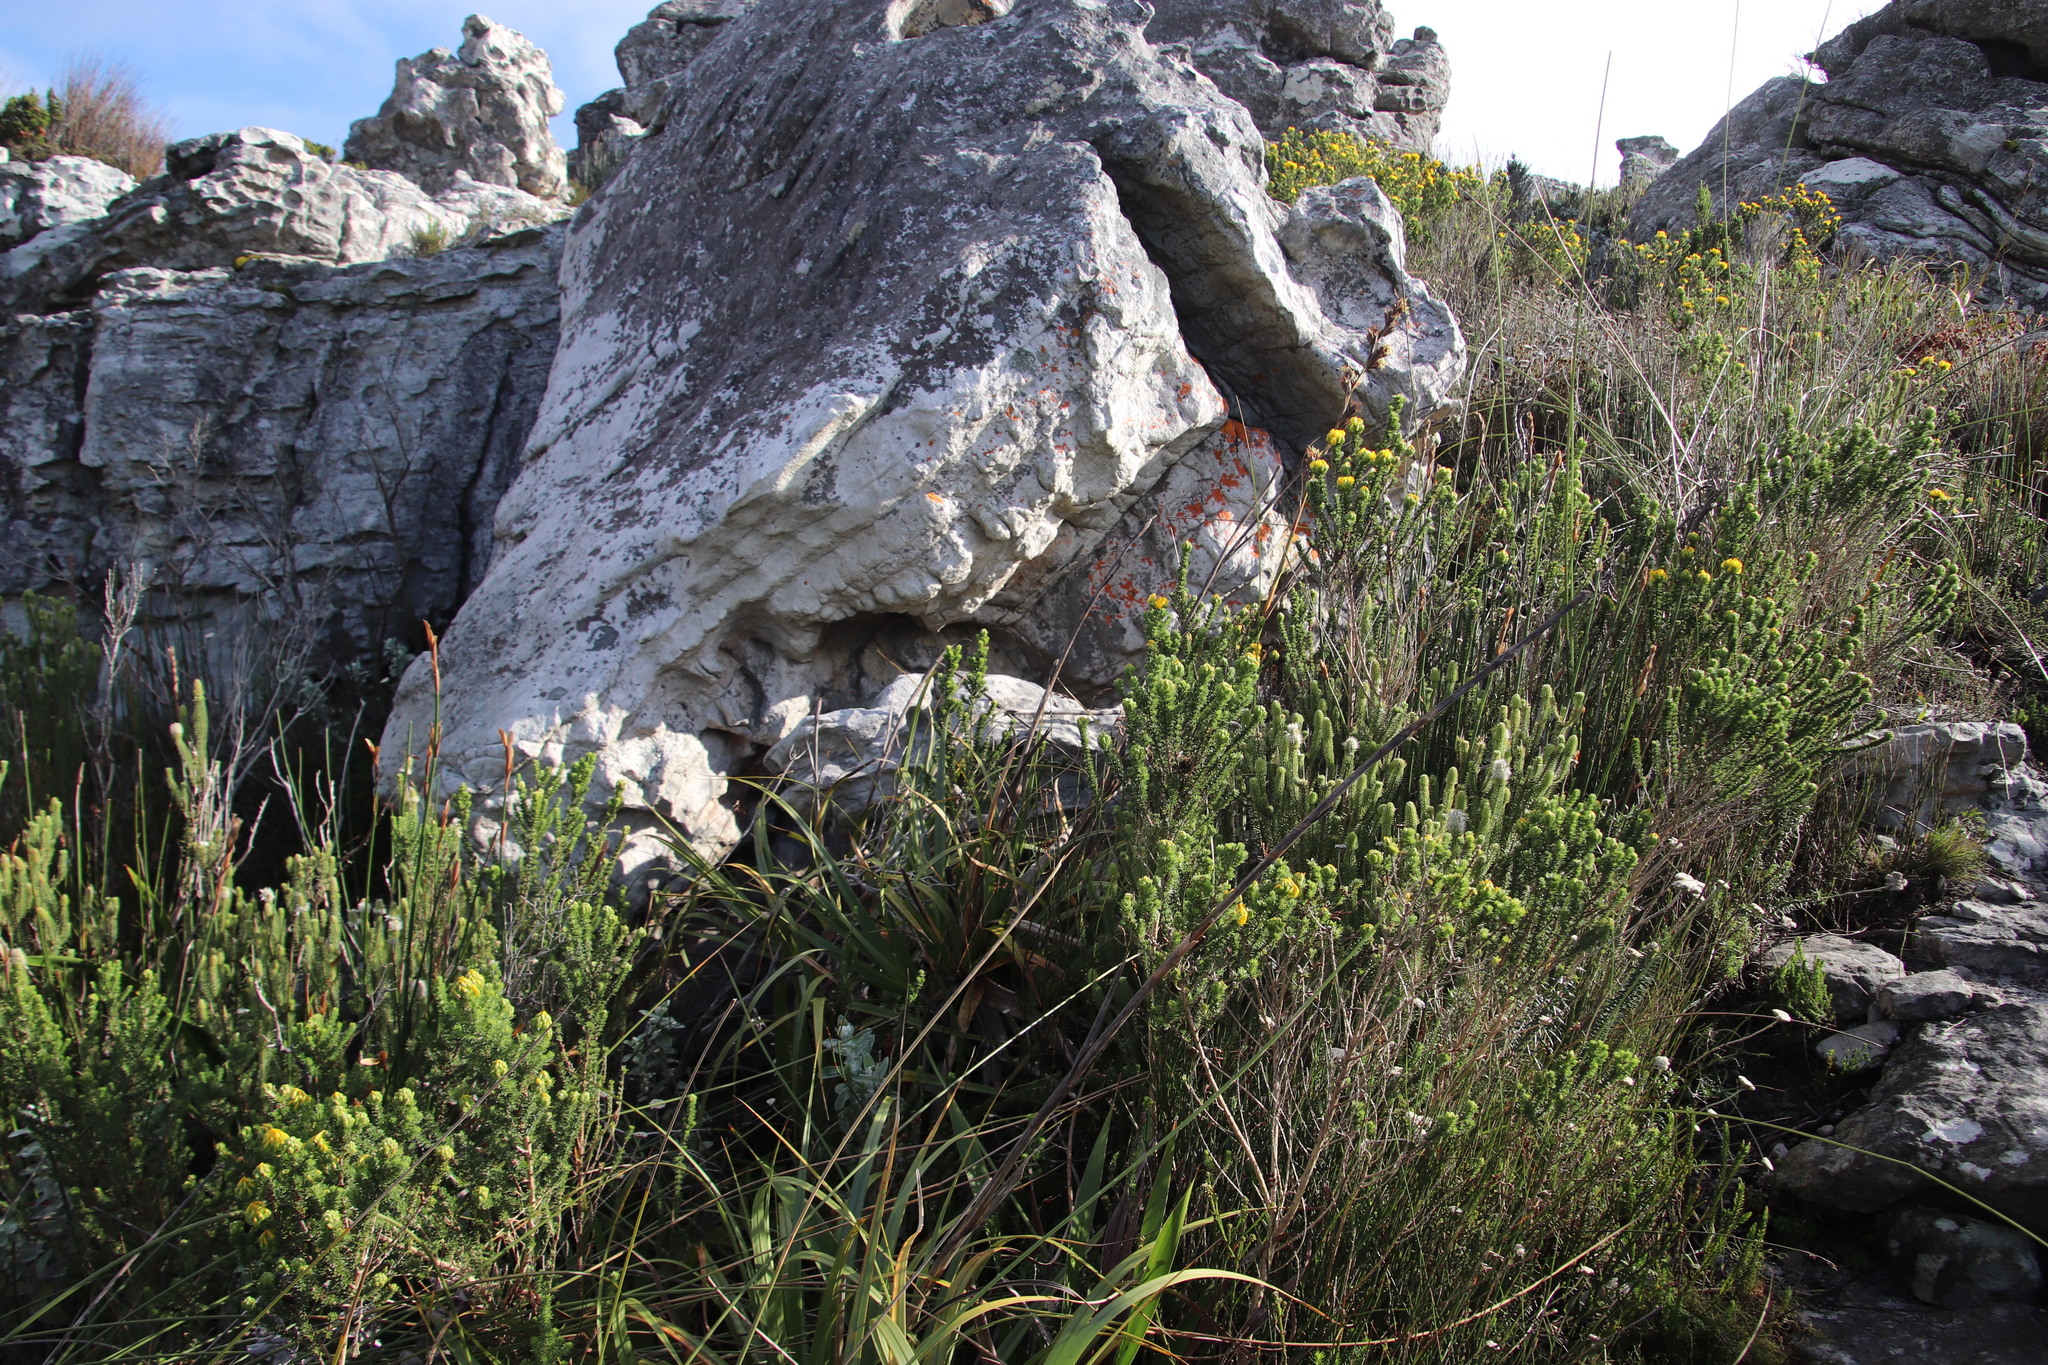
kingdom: Plantae
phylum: Tracheophyta
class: Liliopsida
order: Poales
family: Cyperaceae
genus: Tetraria
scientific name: Tetraria thermalis
